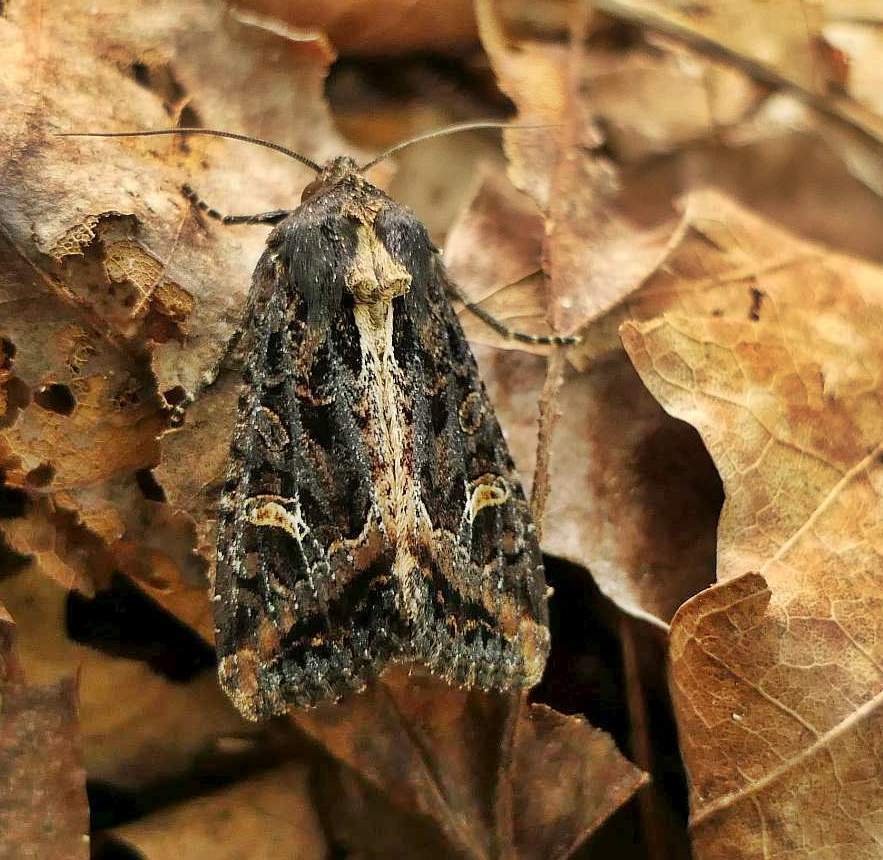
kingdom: Animalia
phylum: Arthropoda
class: Insecta
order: Lepidoptera
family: Noctuidae
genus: Helotropha
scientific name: Helotropha reniformis
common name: Kidney-spotted rustic moth
